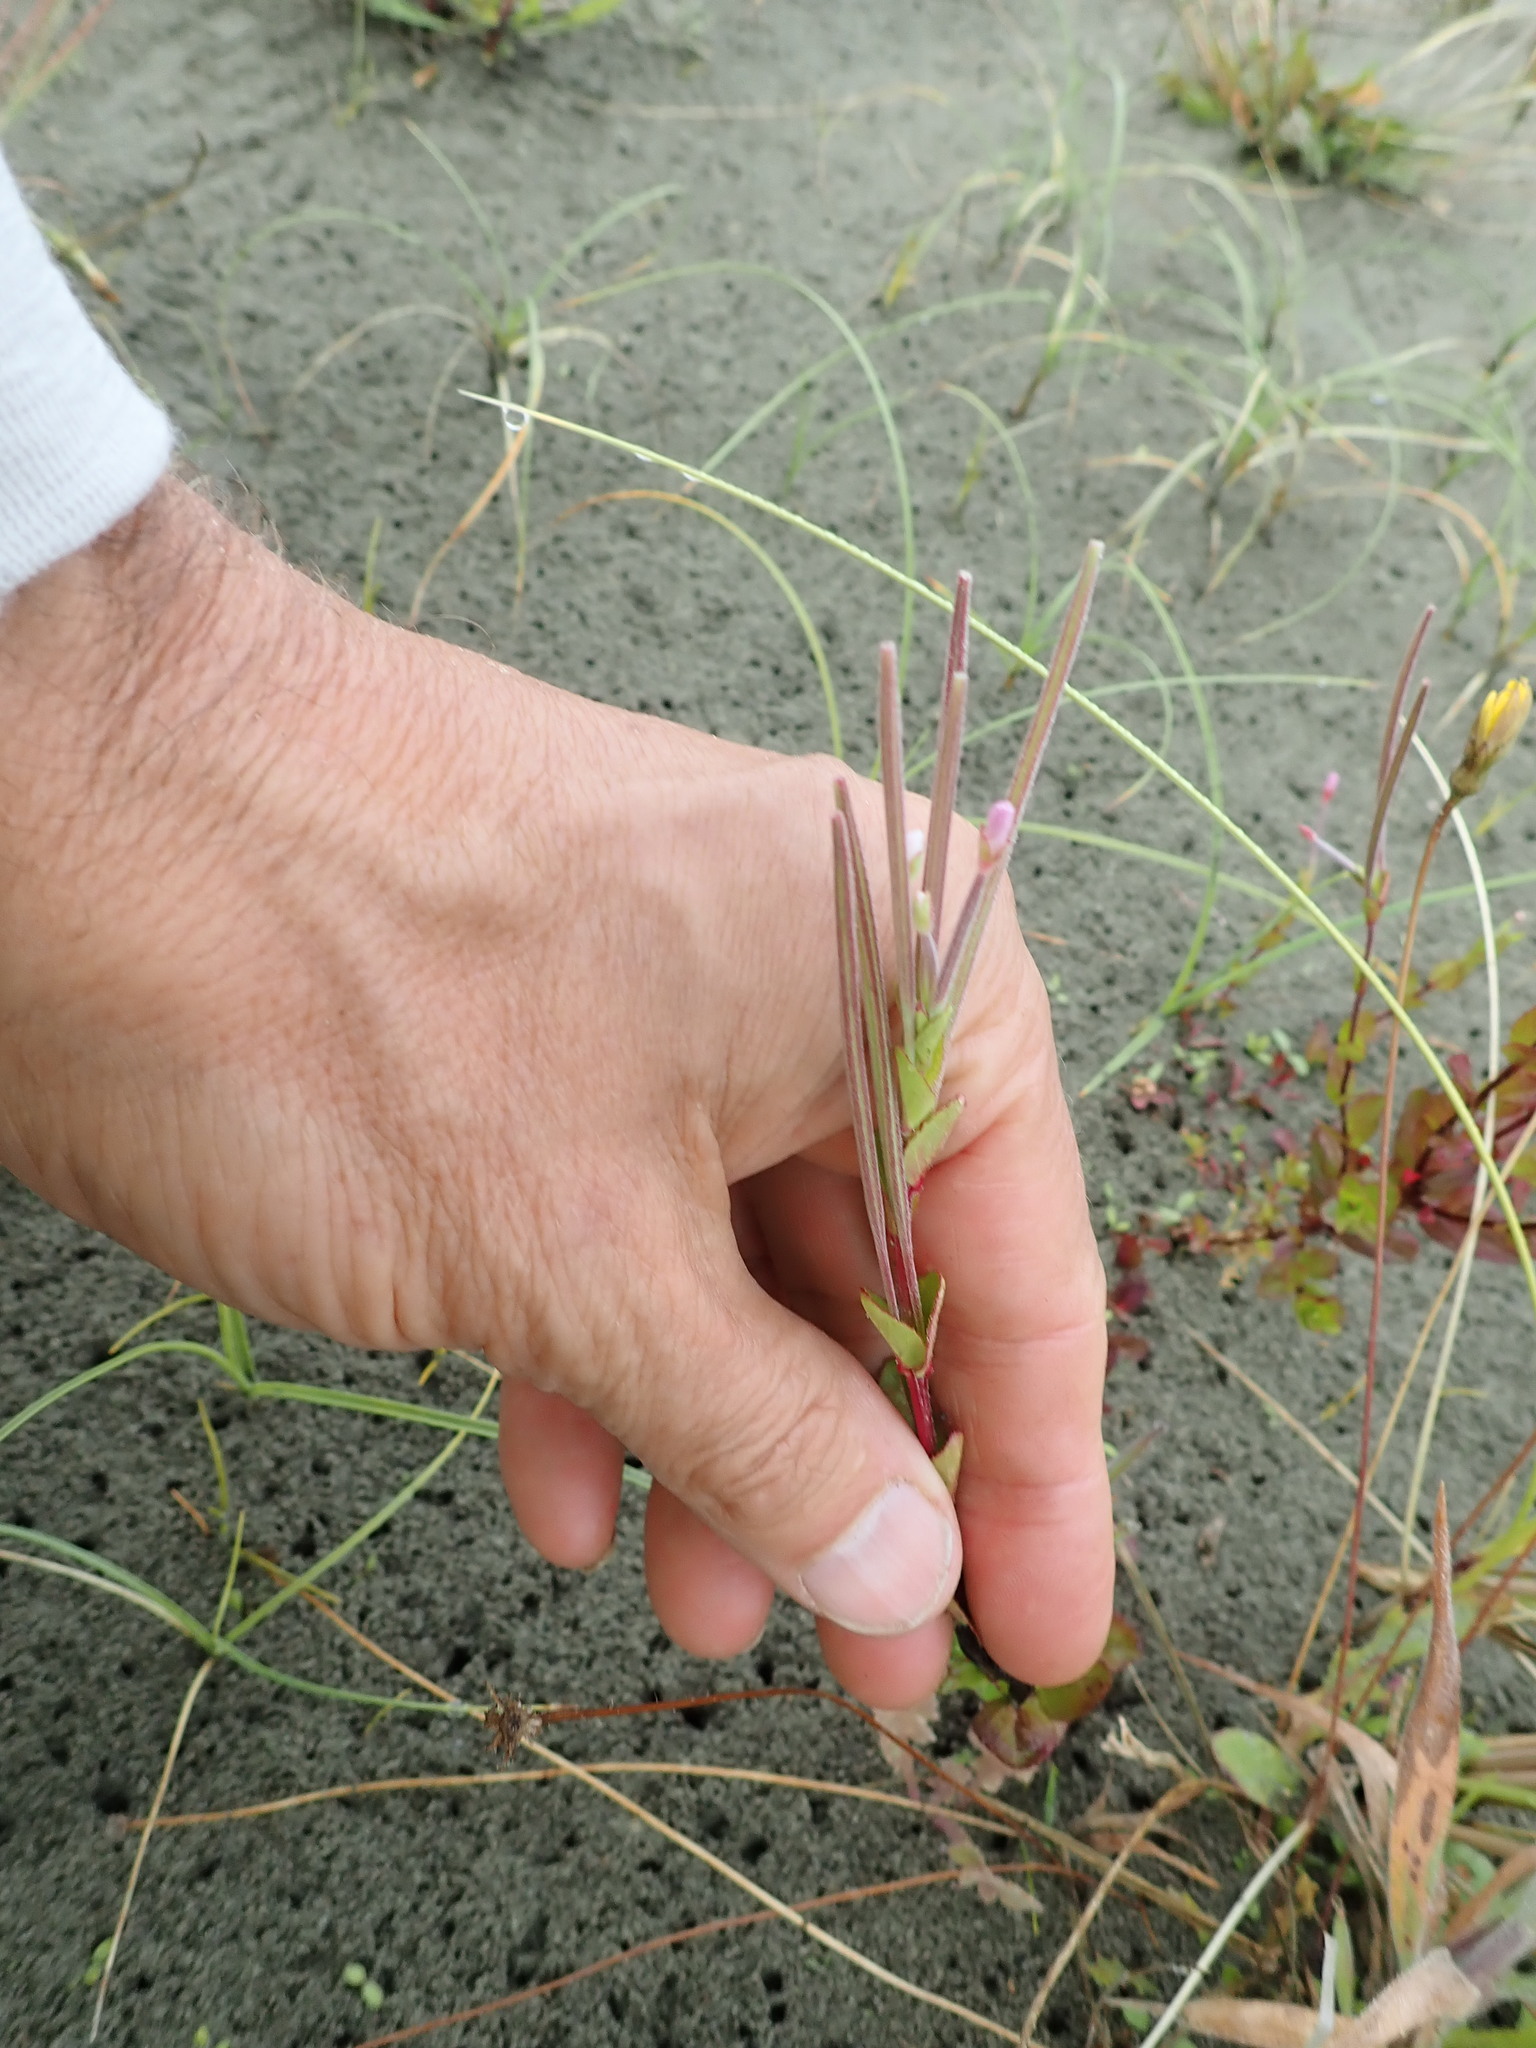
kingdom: Plantae
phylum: Tracheophyta
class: Magnoliopsida
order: Myrtales
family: Onagraceae
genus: Epilobium
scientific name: Epilobium billardiereanum
